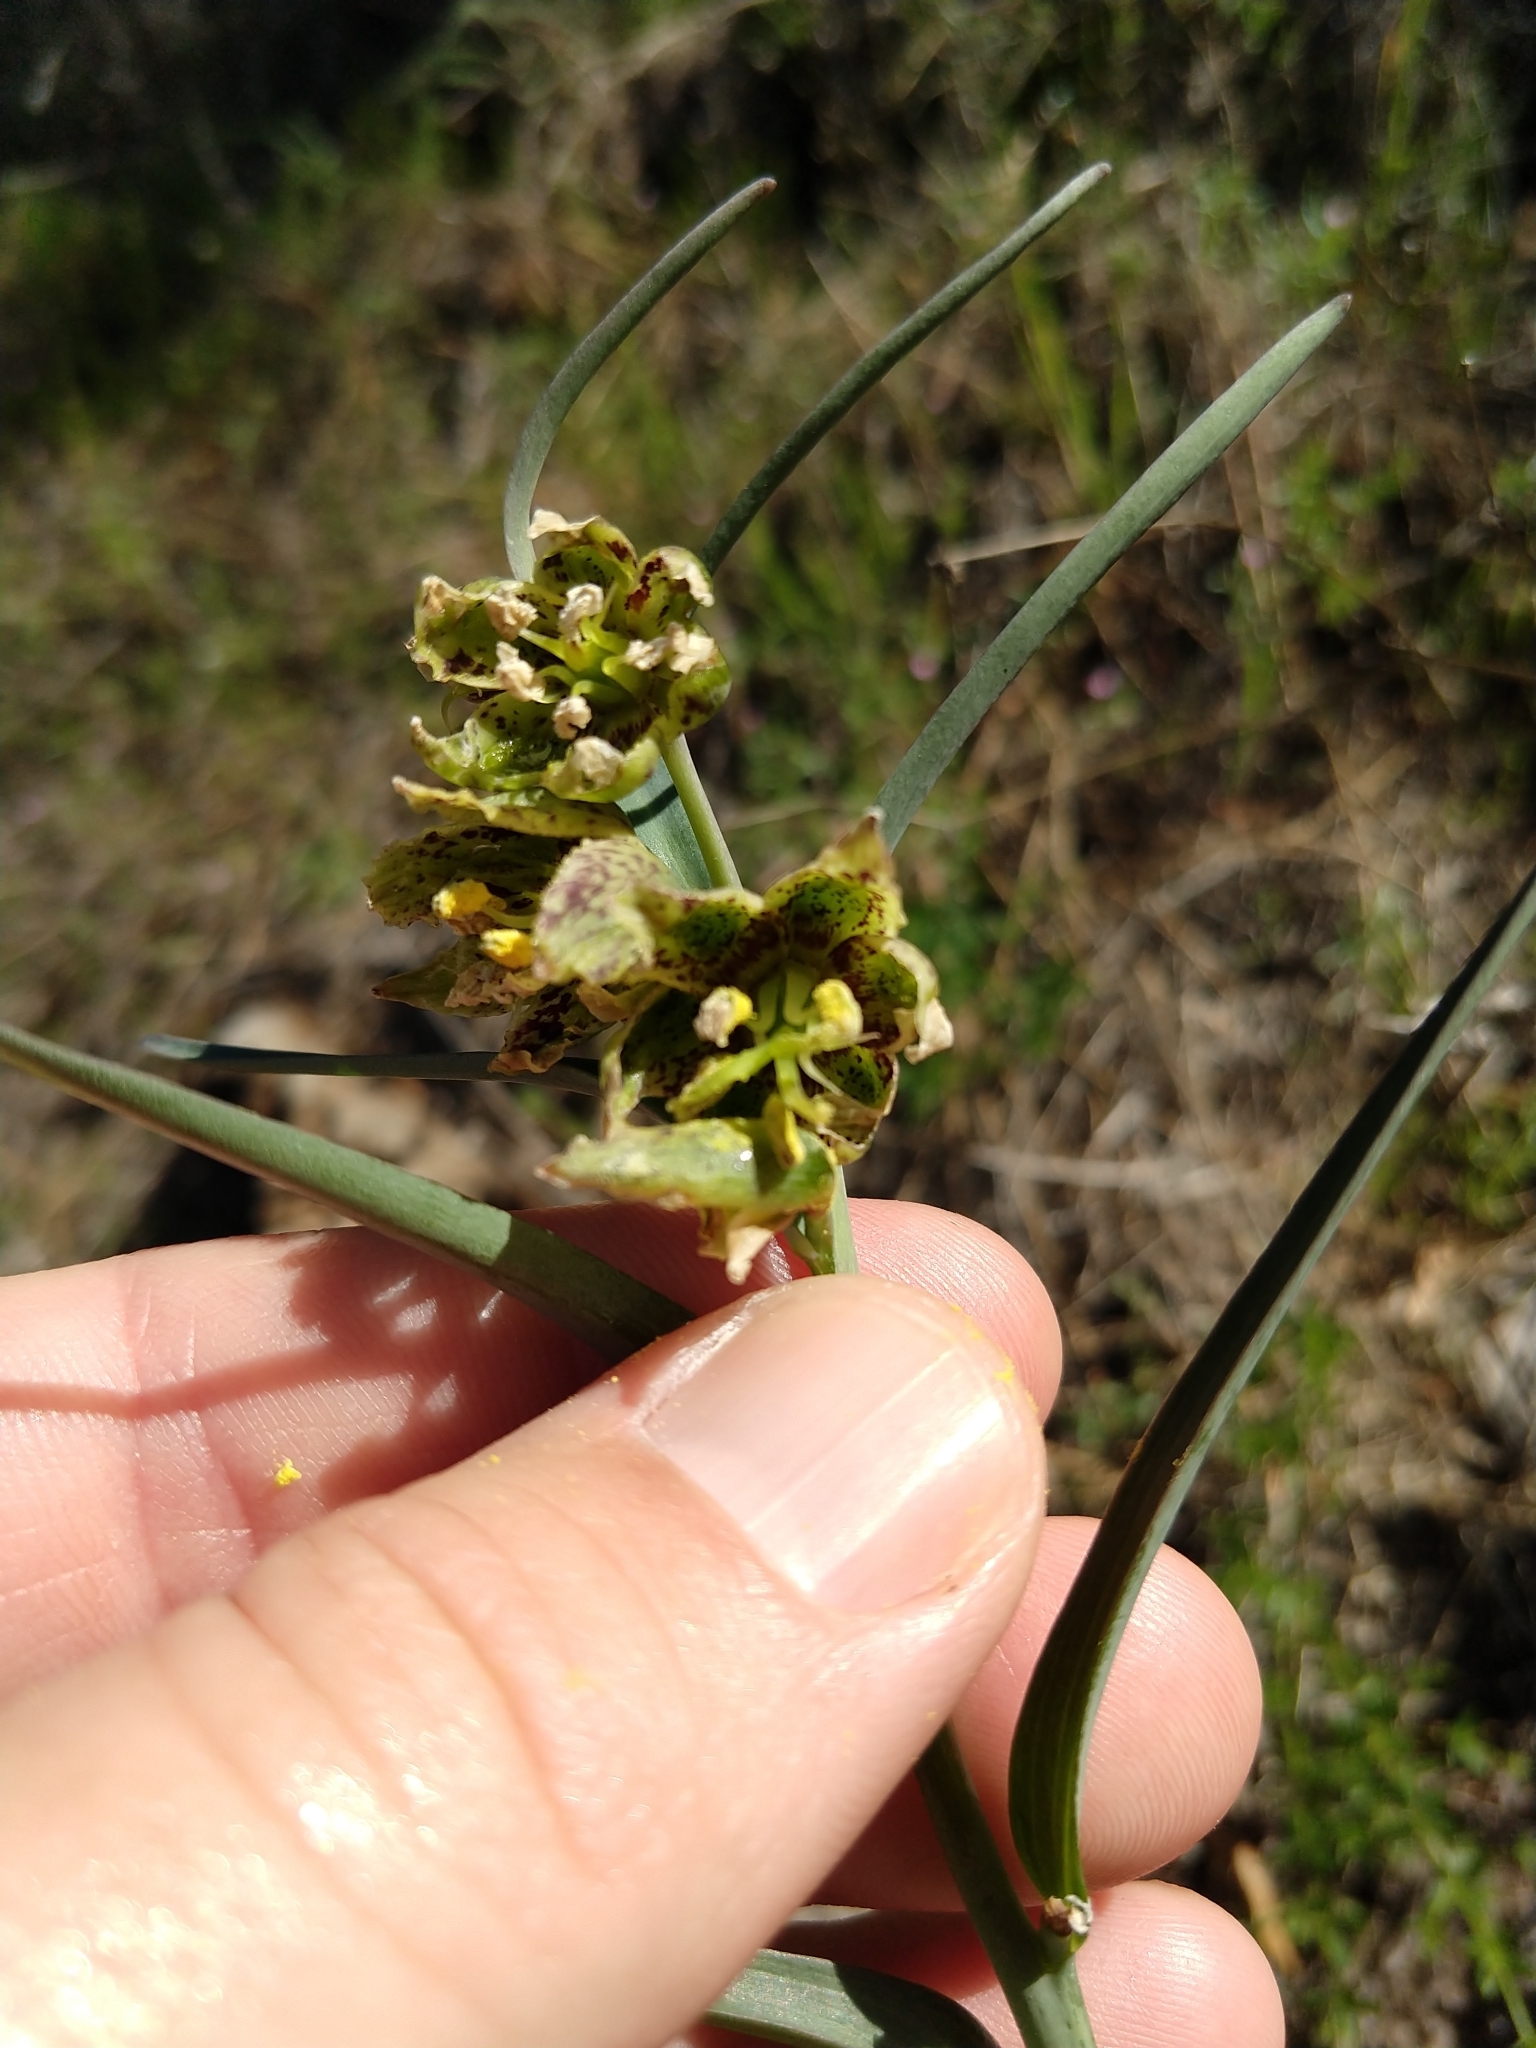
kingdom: Plantae
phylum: Tracheophyta
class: Liliopsida
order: Liliales
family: Liliaceae
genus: Fritillaria
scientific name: Fritillaria affinis
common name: Ojai fritillary
